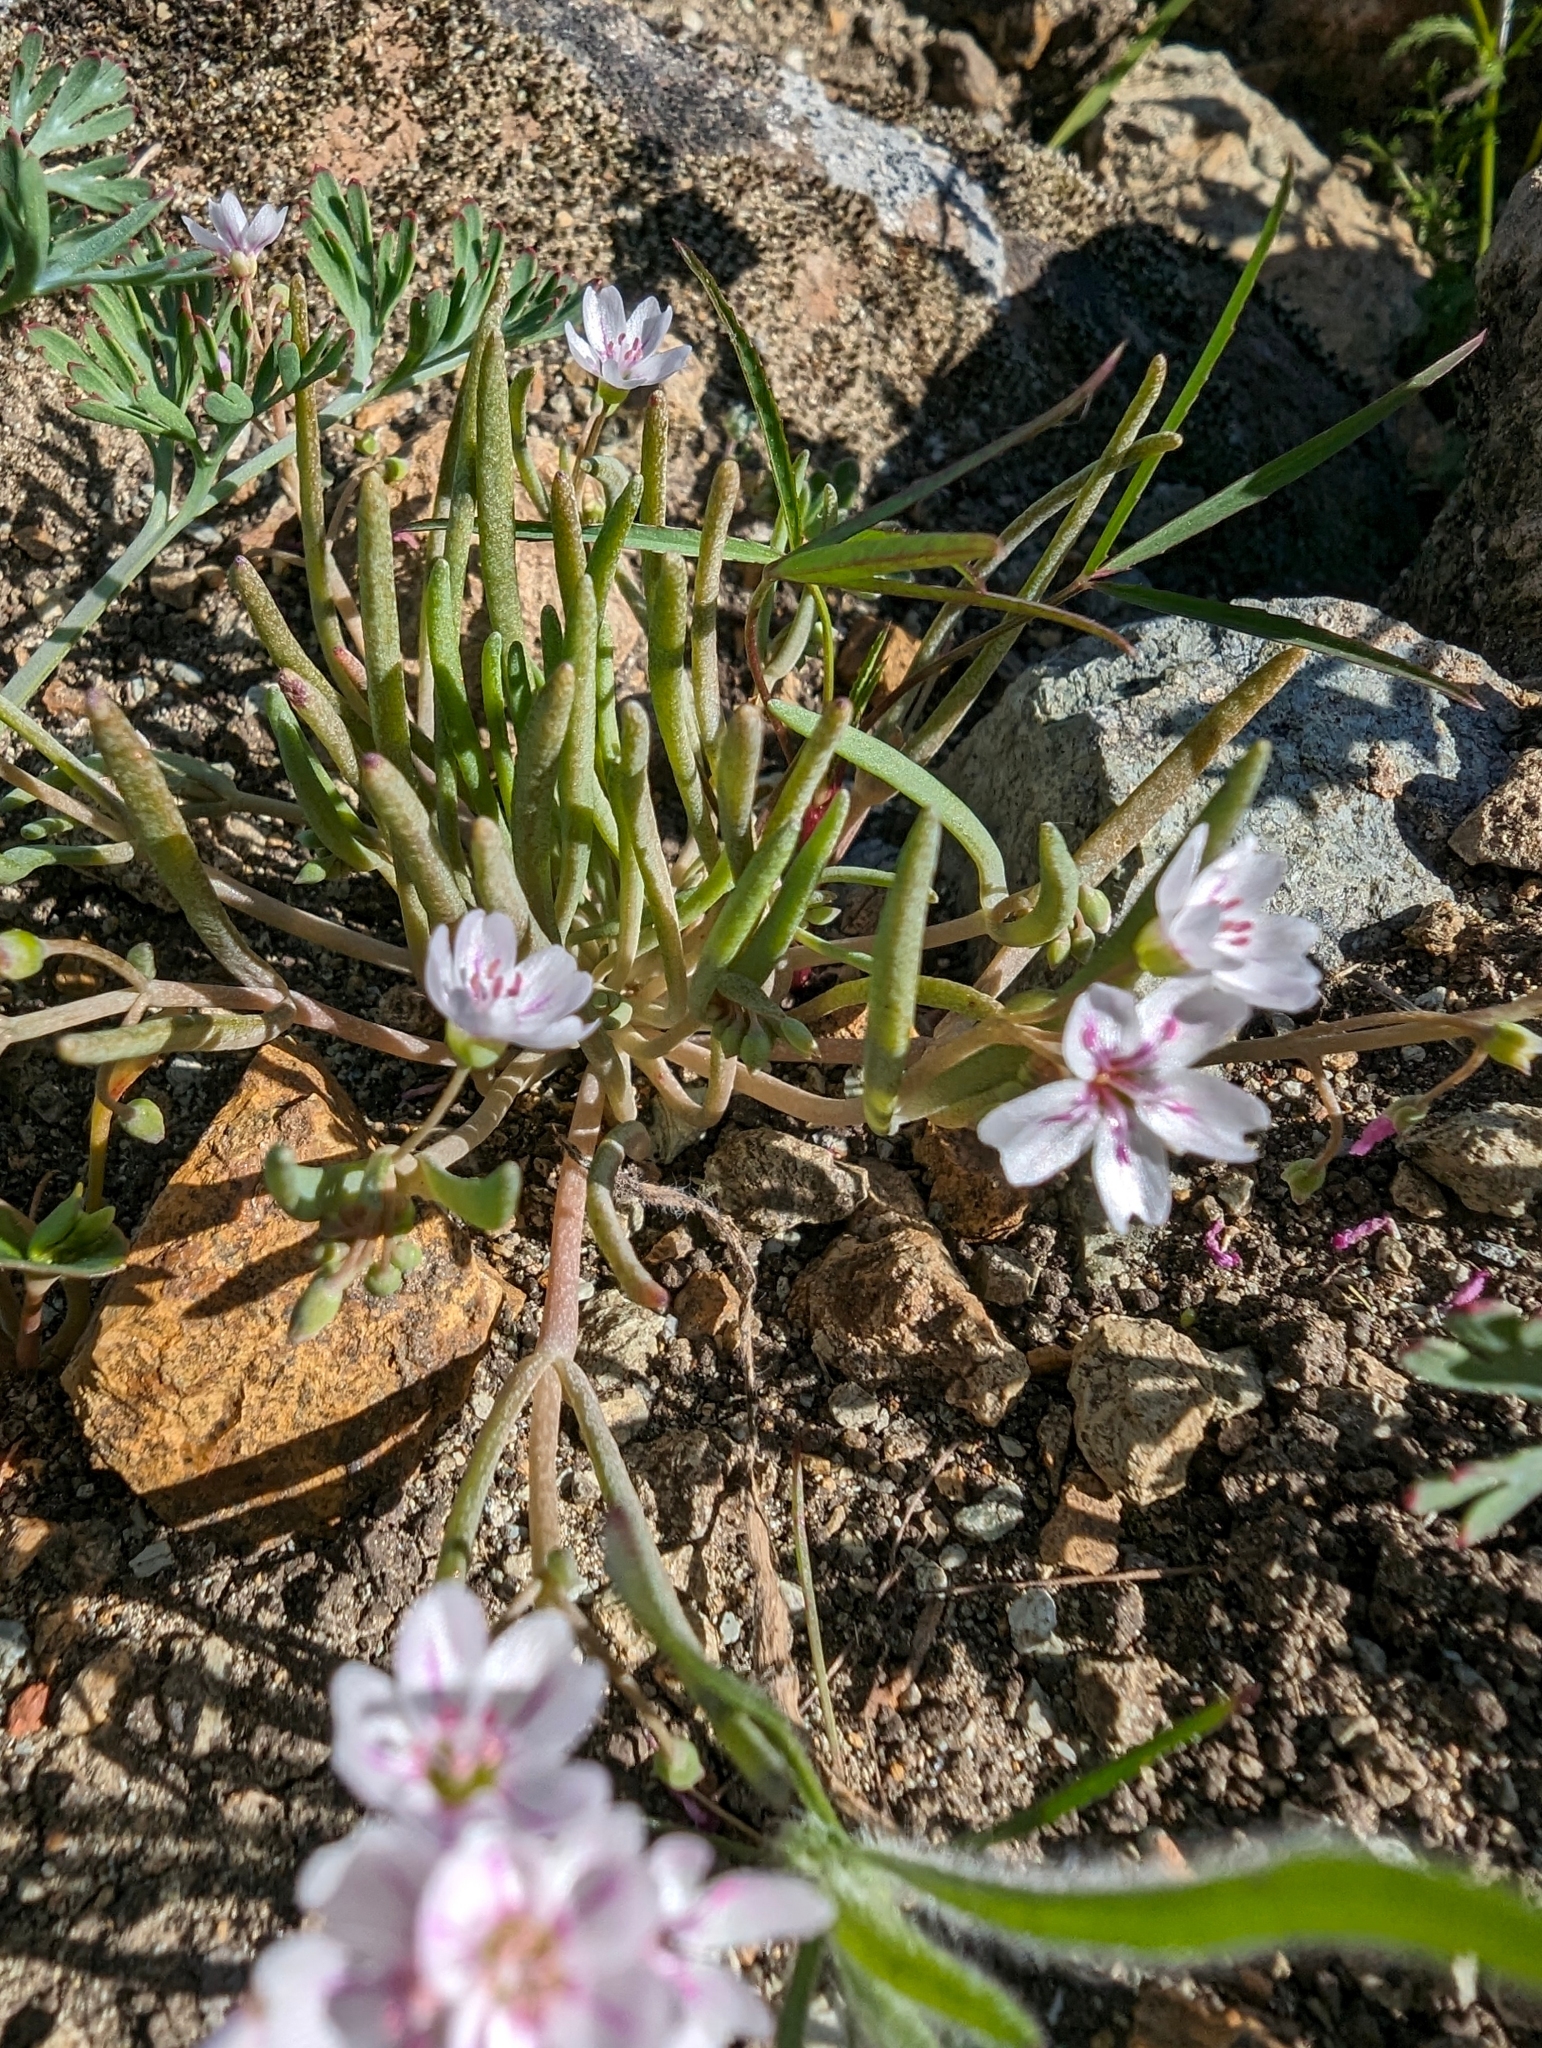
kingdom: Plantae
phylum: Tracheophyta
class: Magnoliopsida
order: Caryophyllales
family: Montiaceae
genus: Claytonia
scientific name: Claytonia gypsophiloides
